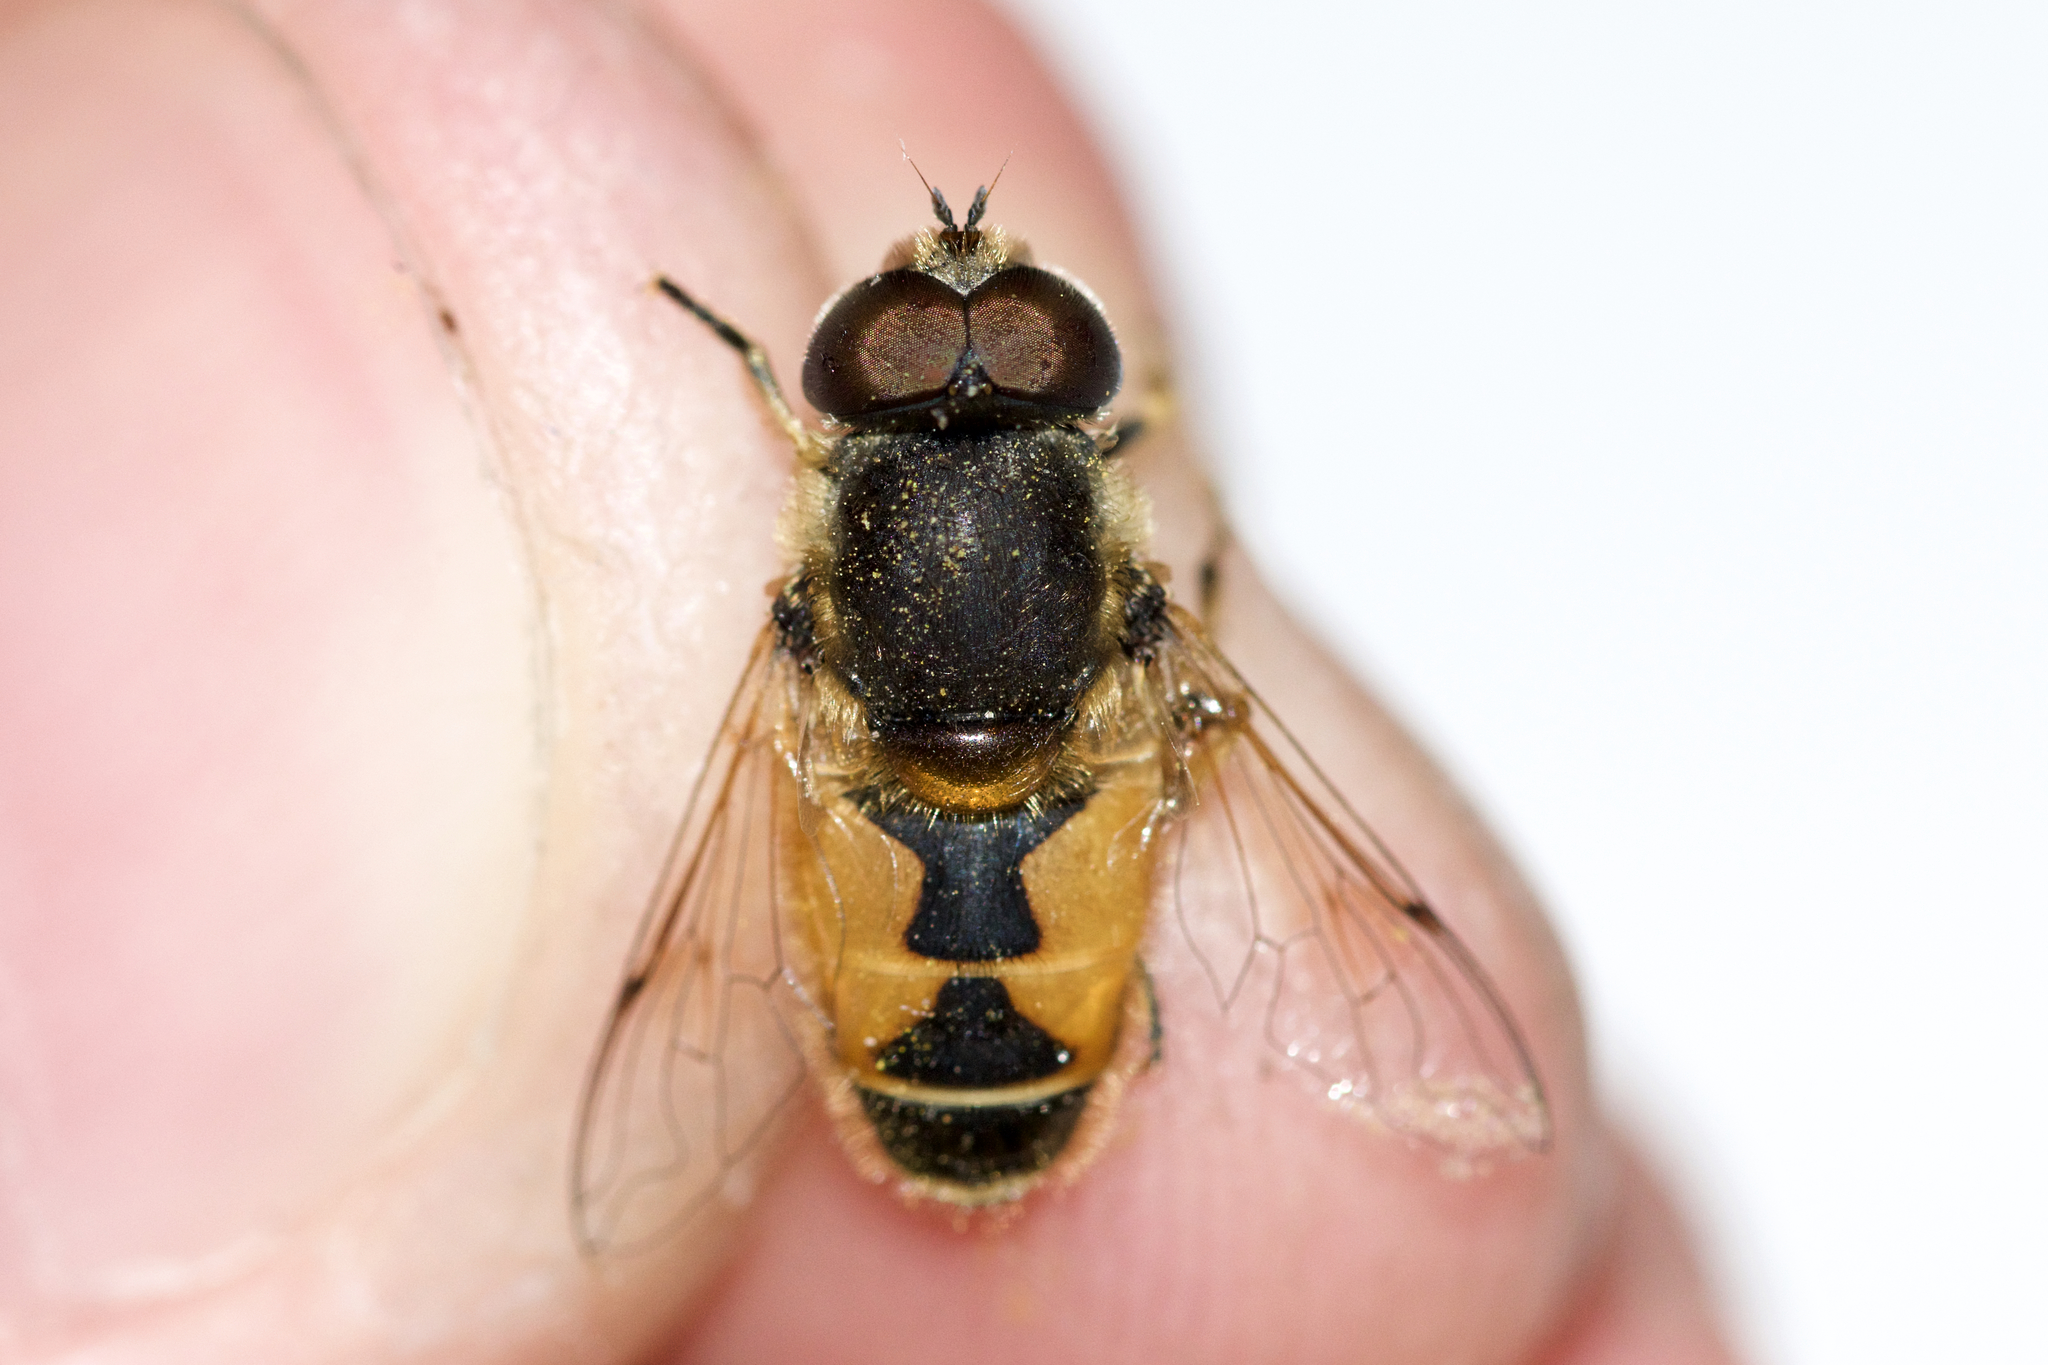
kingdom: Animalia
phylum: Arthropoda
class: Insecta
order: Diptera
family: Syrphidae
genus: Eristalis
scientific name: Eristalis arbustorum
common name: Hover fly
